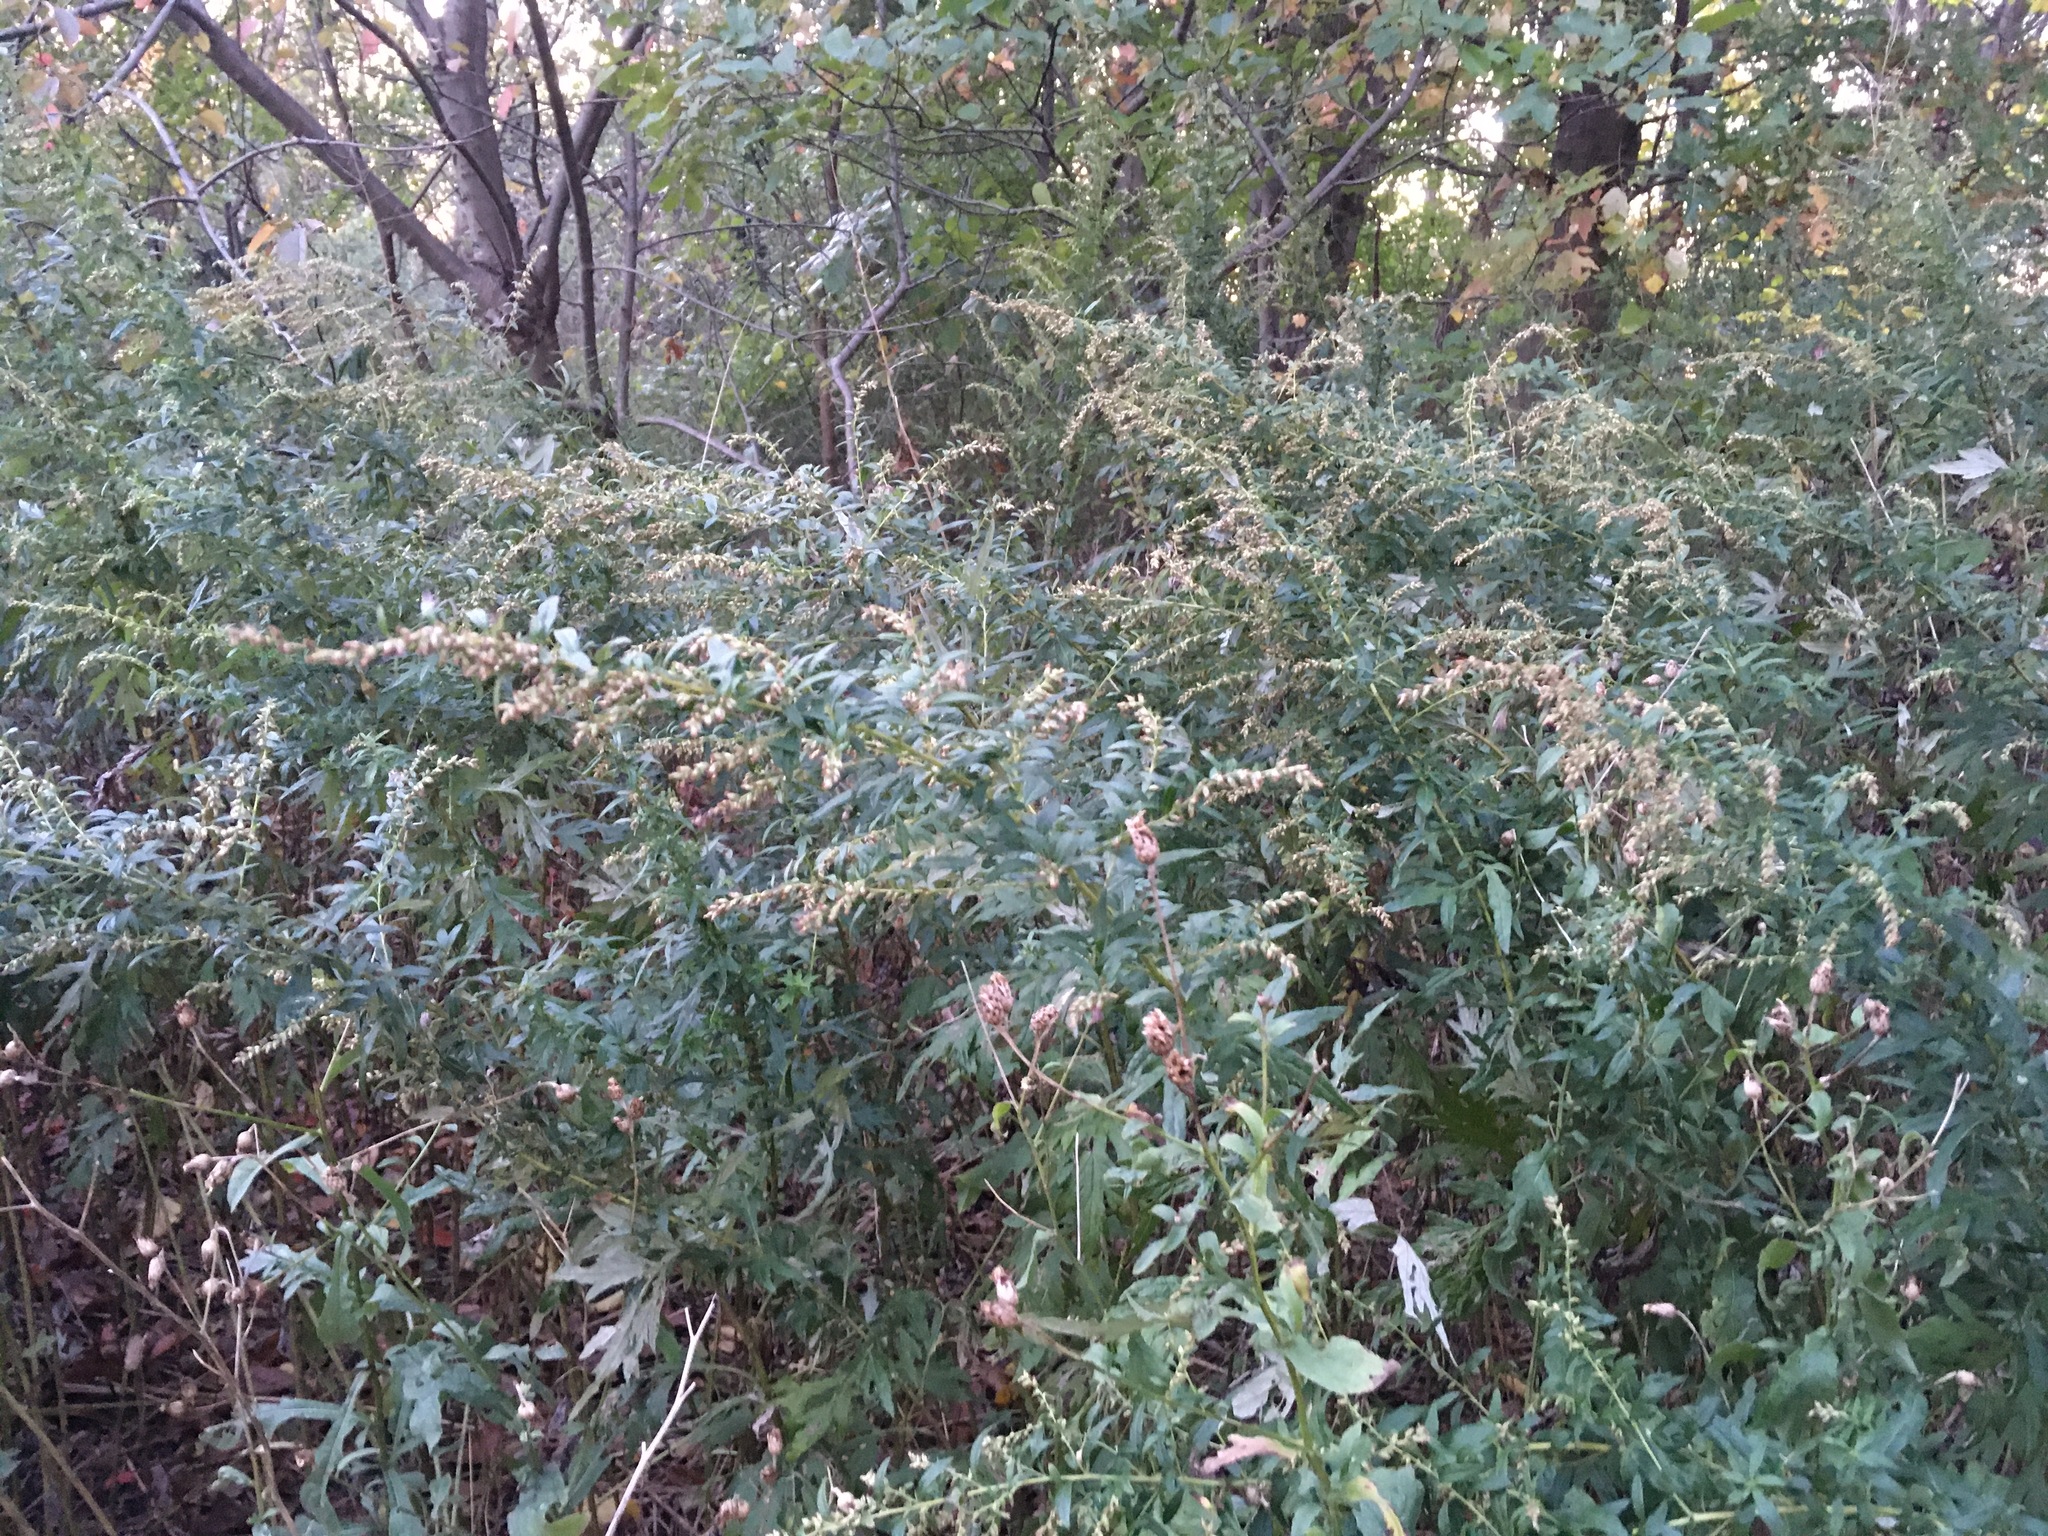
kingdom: Plantae
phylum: Tracheophyta
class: Magnoliopsida
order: Asterales
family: Asteraceae
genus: Artemisia
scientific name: Artemisia vulgaris
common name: Mugwort
